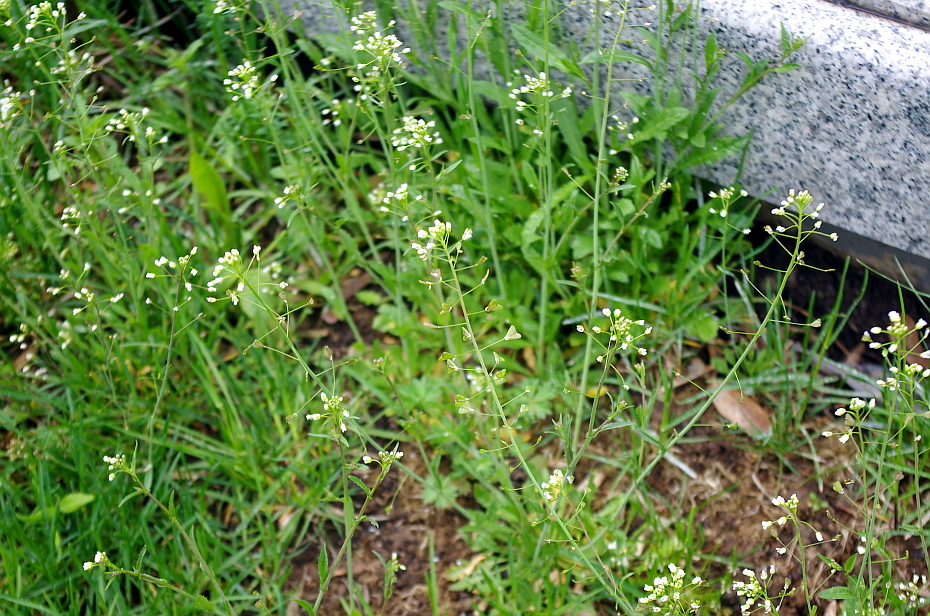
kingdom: Plantae
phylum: Tracheophyta
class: Magnoliopsida
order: Brassicales
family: Brassicaceae
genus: Capsella
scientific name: Capsella bursa-pastoris
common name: Shepherd's purse
